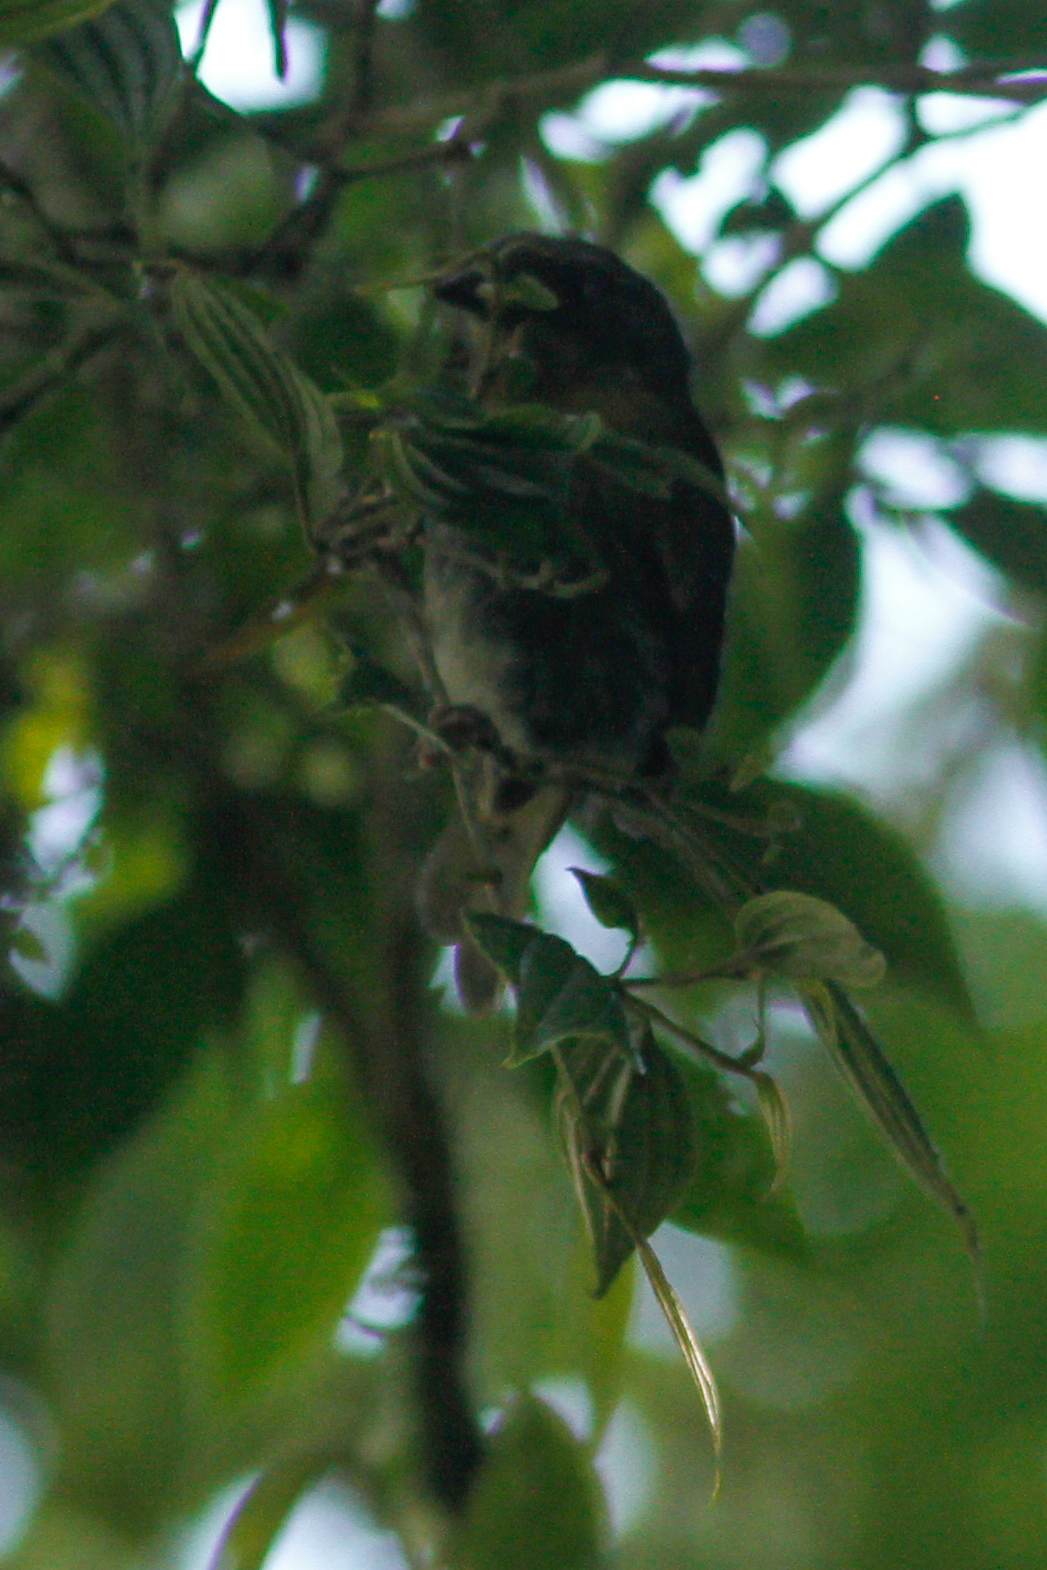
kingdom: Animalia
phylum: Chordata
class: Aves
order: Passeriformes
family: Thraupidae
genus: Sphenopsis
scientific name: Sphenopsis melanotis
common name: Black-eared hemispingus
